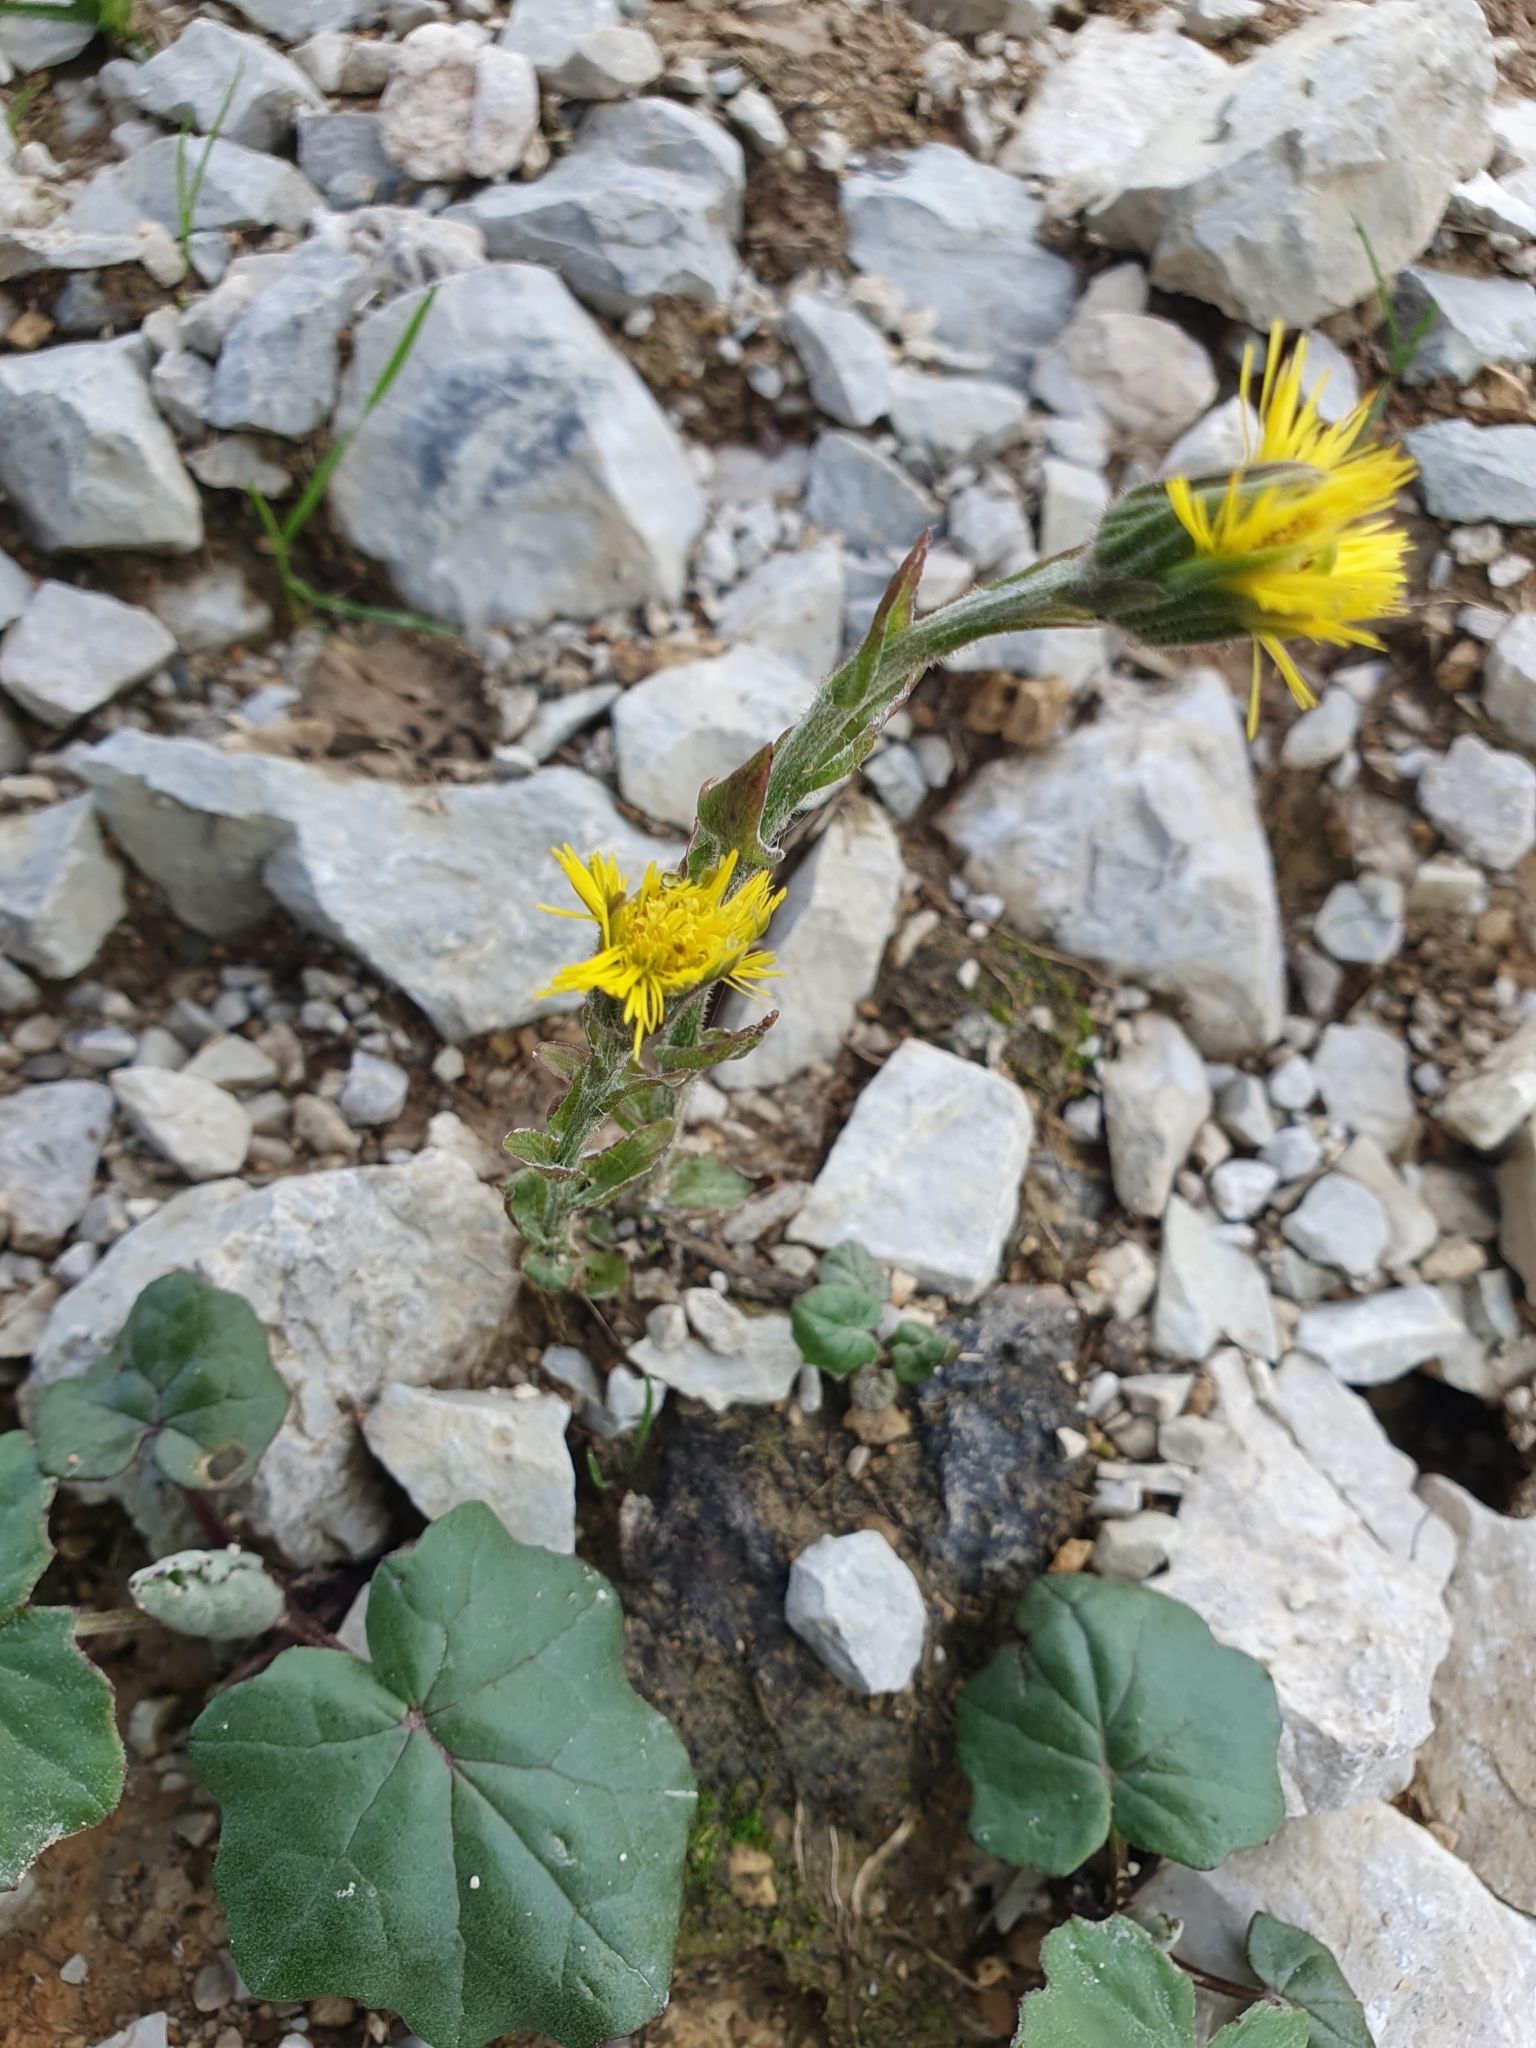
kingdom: Plantae
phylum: Tracheophyta
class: Magnoliopsida
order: Asterales
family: Asteraceae
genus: Tussilago
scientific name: Tussilago farfara
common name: Coltsfoot
